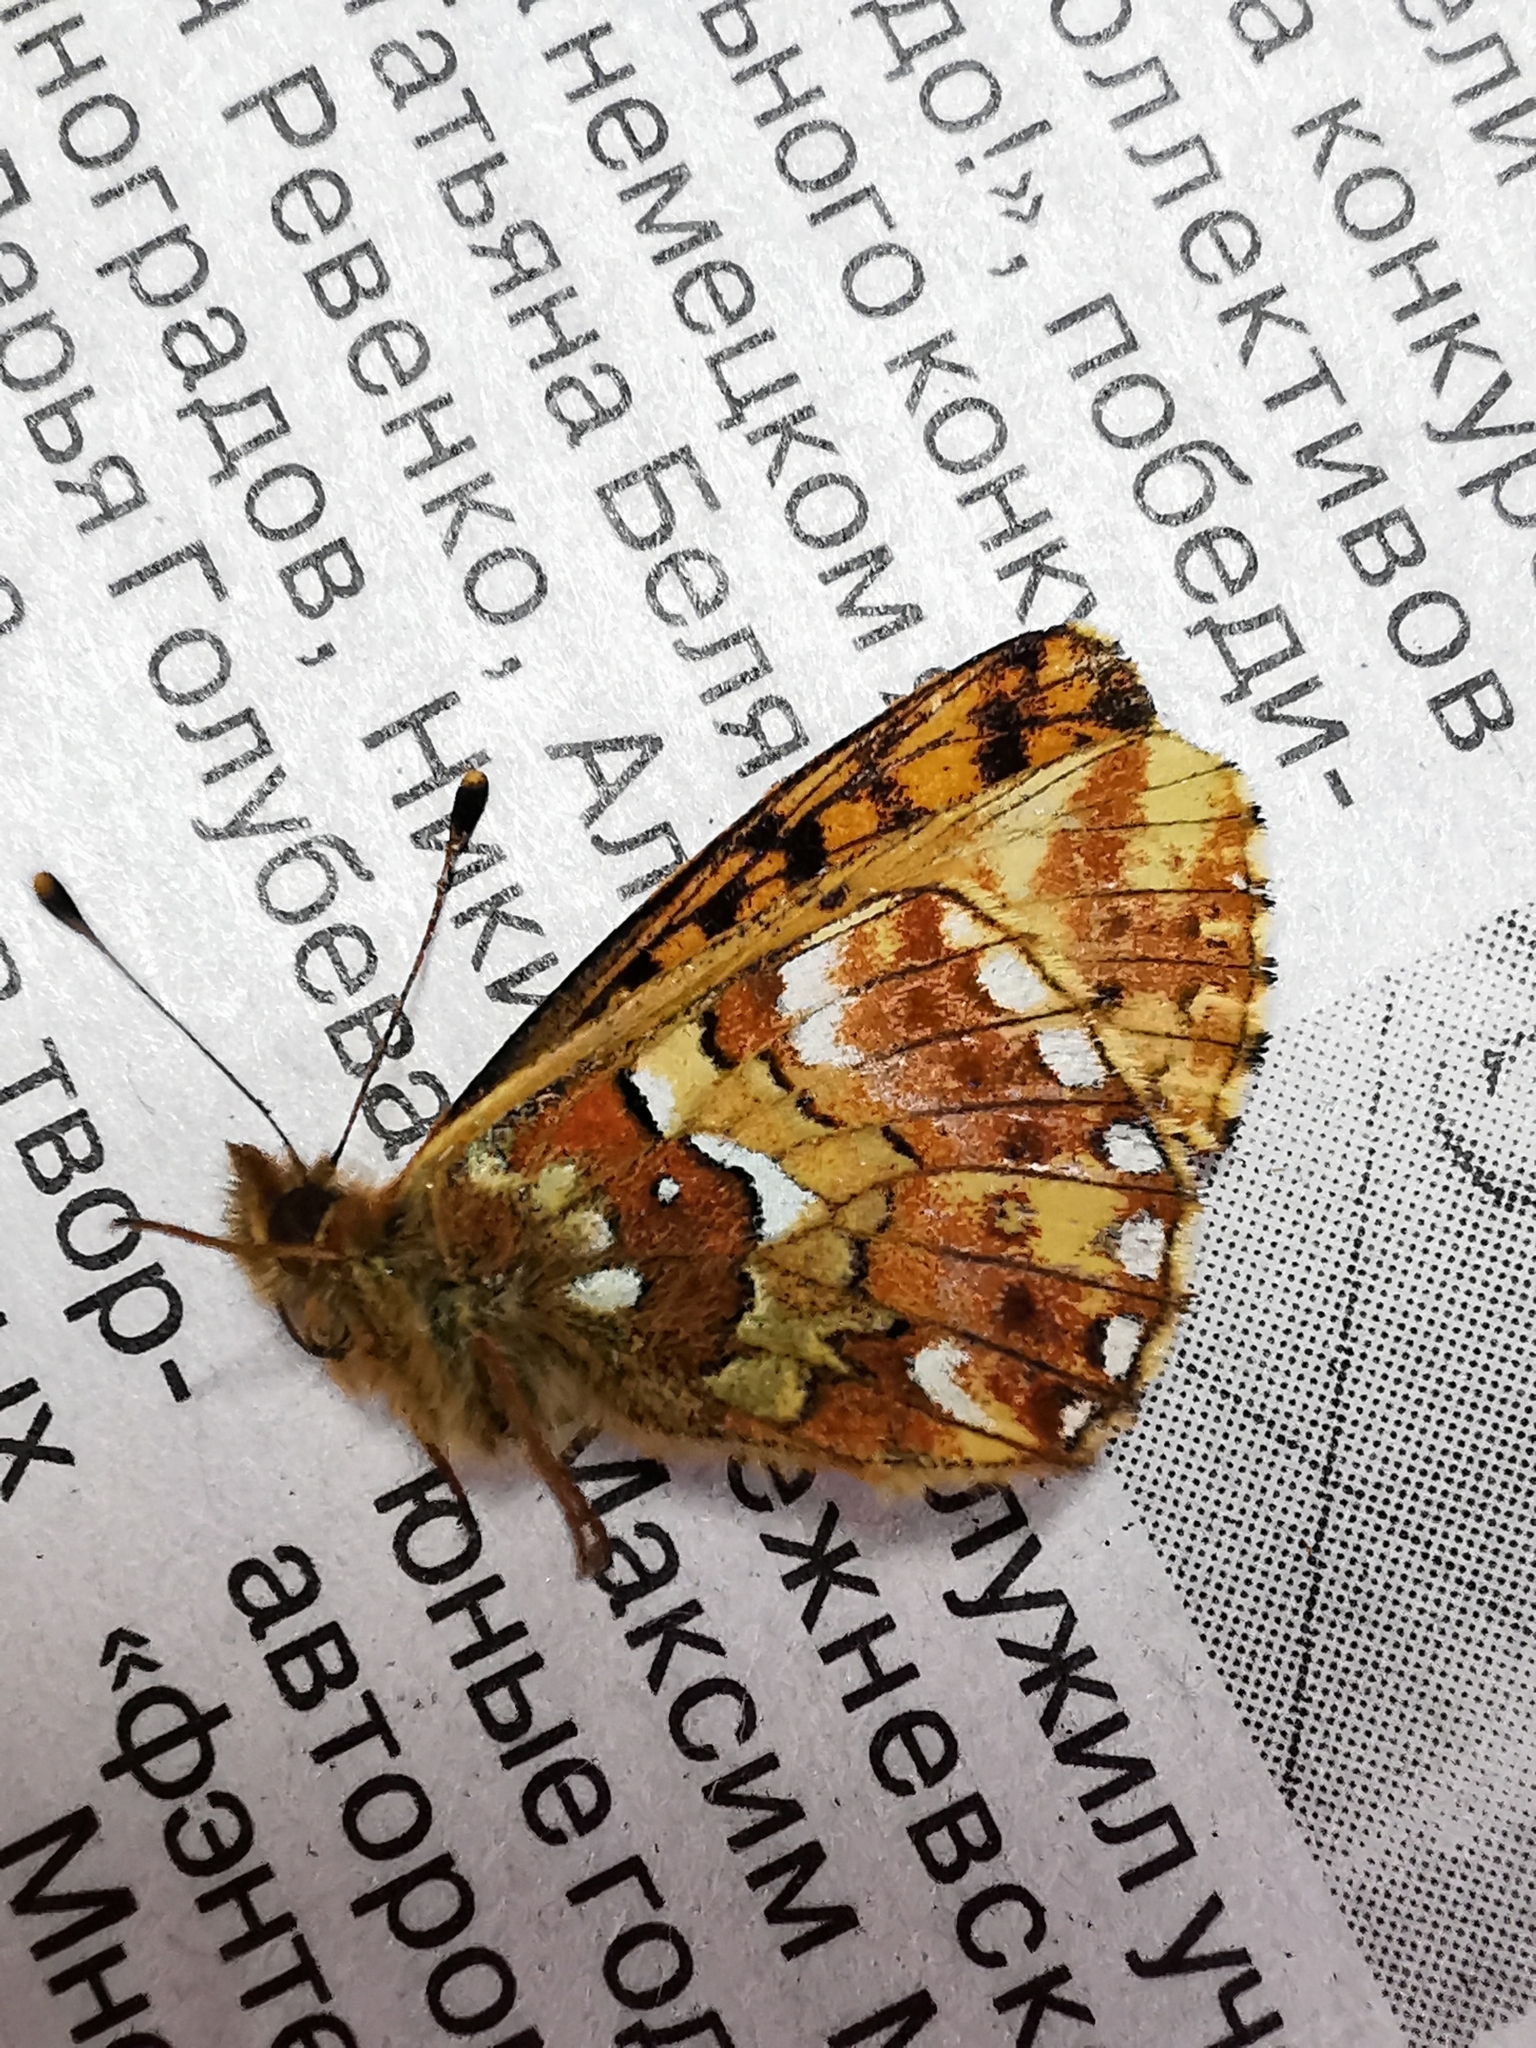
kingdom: Animalia
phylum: Arthropoda
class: Insecta
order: Lepidoptera
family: Nymphalidae
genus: Boloria
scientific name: Boloria aquilonaris
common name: Cranberry fritillary
